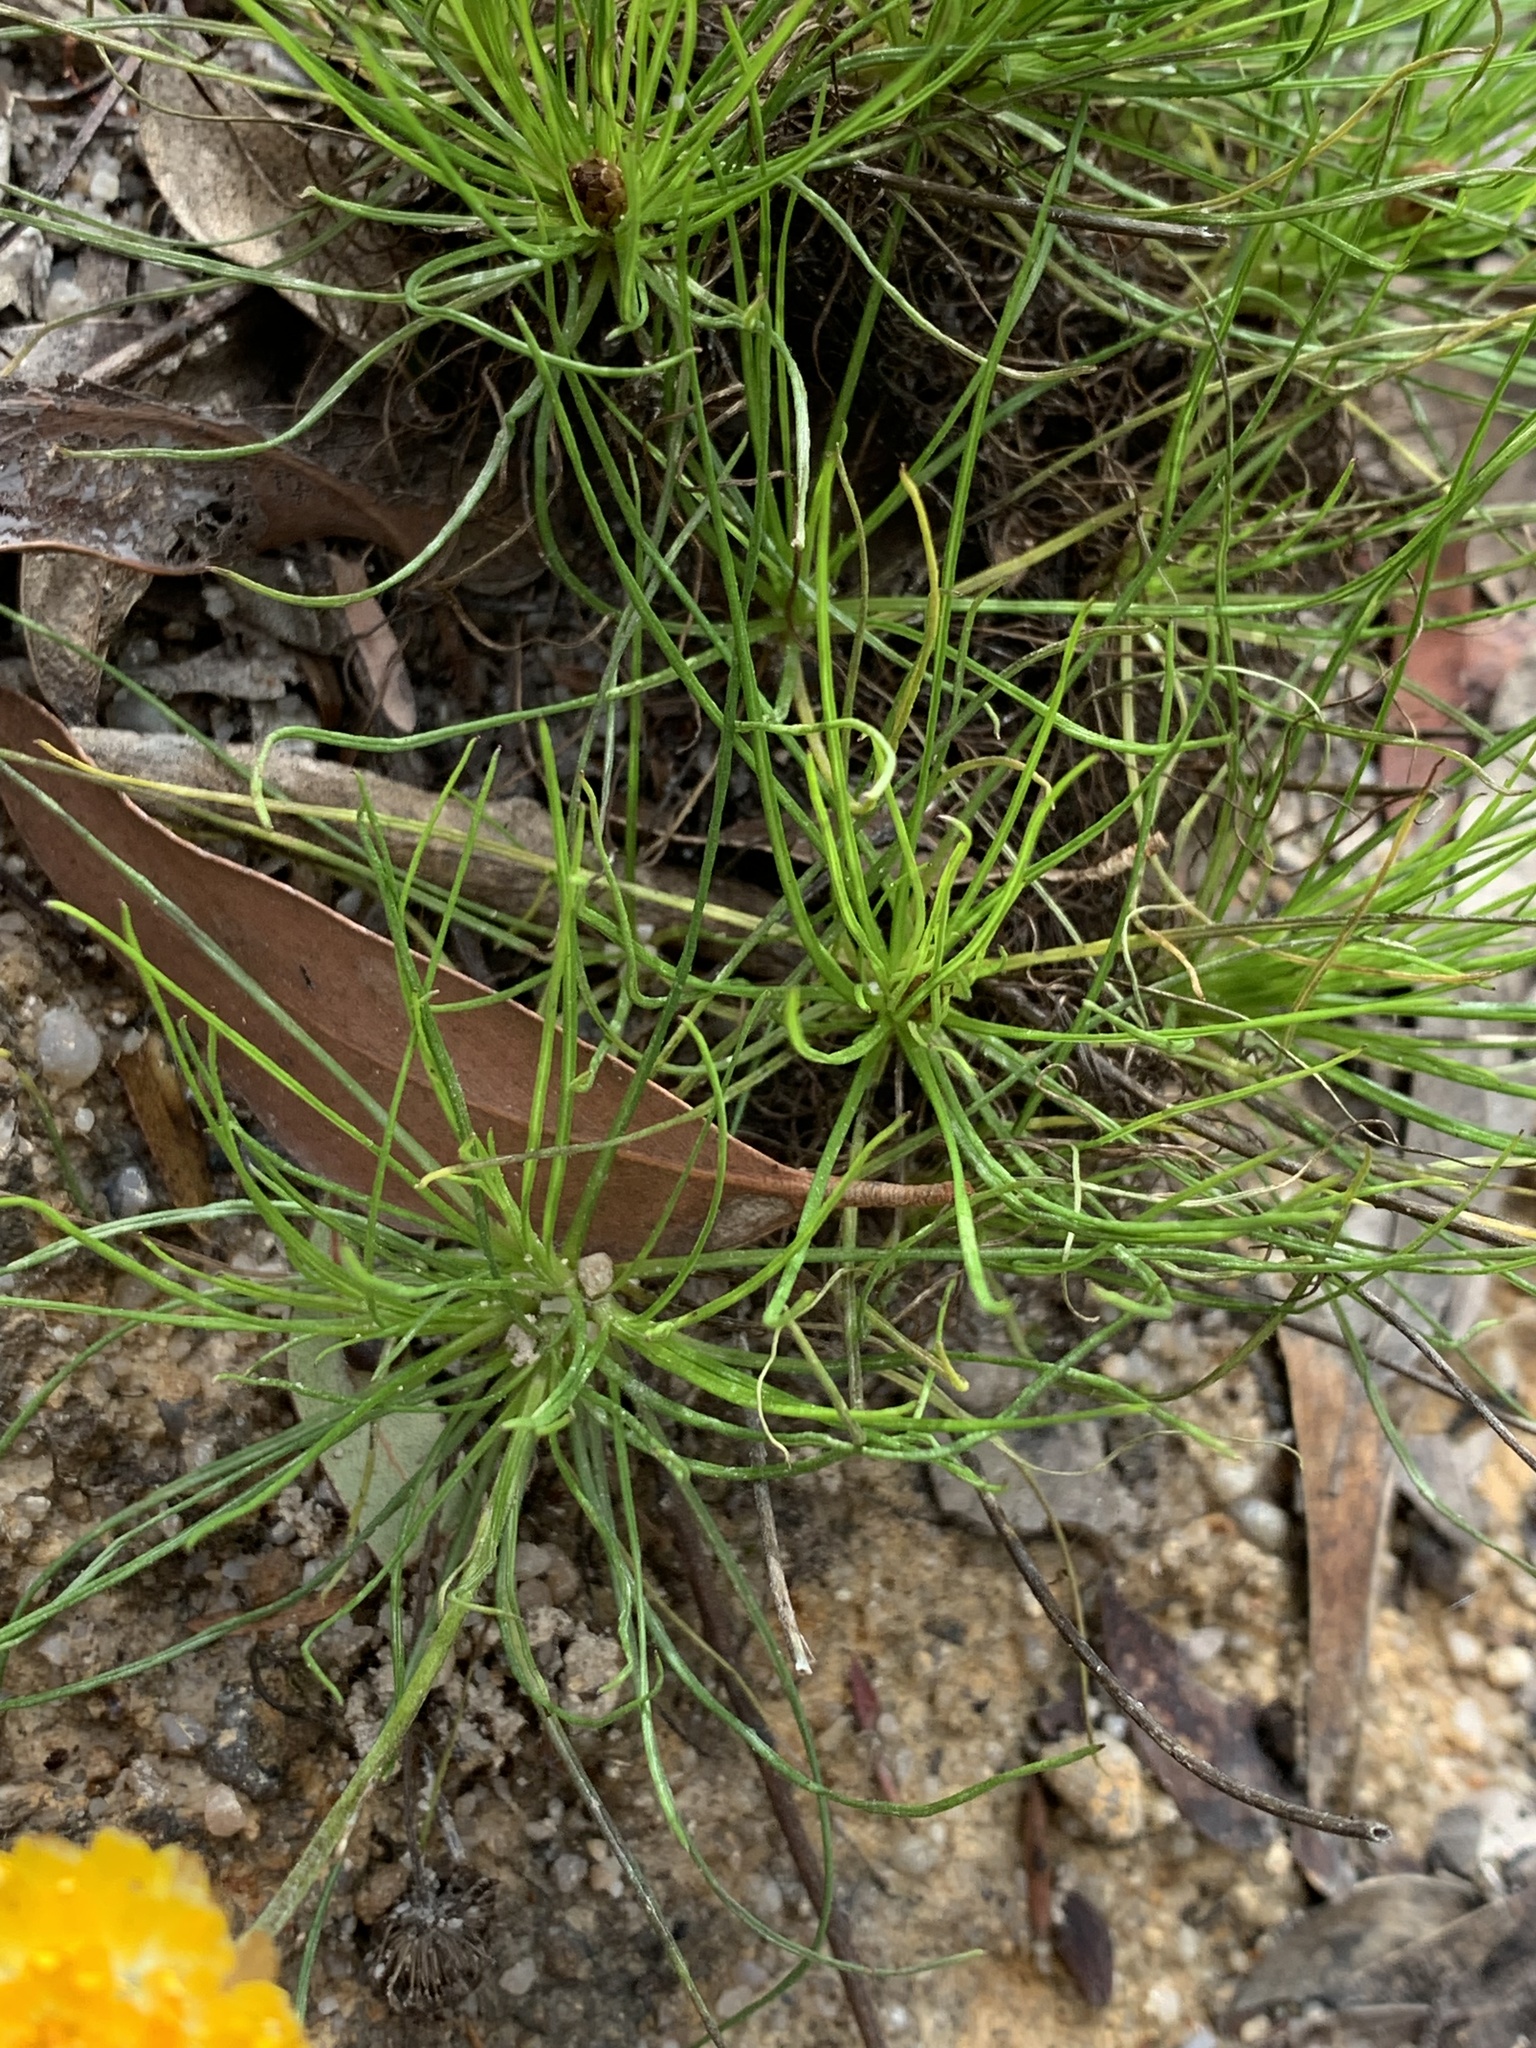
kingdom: Plantae
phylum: Tracheophyta
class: Magnoliopsida
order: Asterales
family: Asteraceae
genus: Leucochrysum
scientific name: Leucochrysum graminifolium
